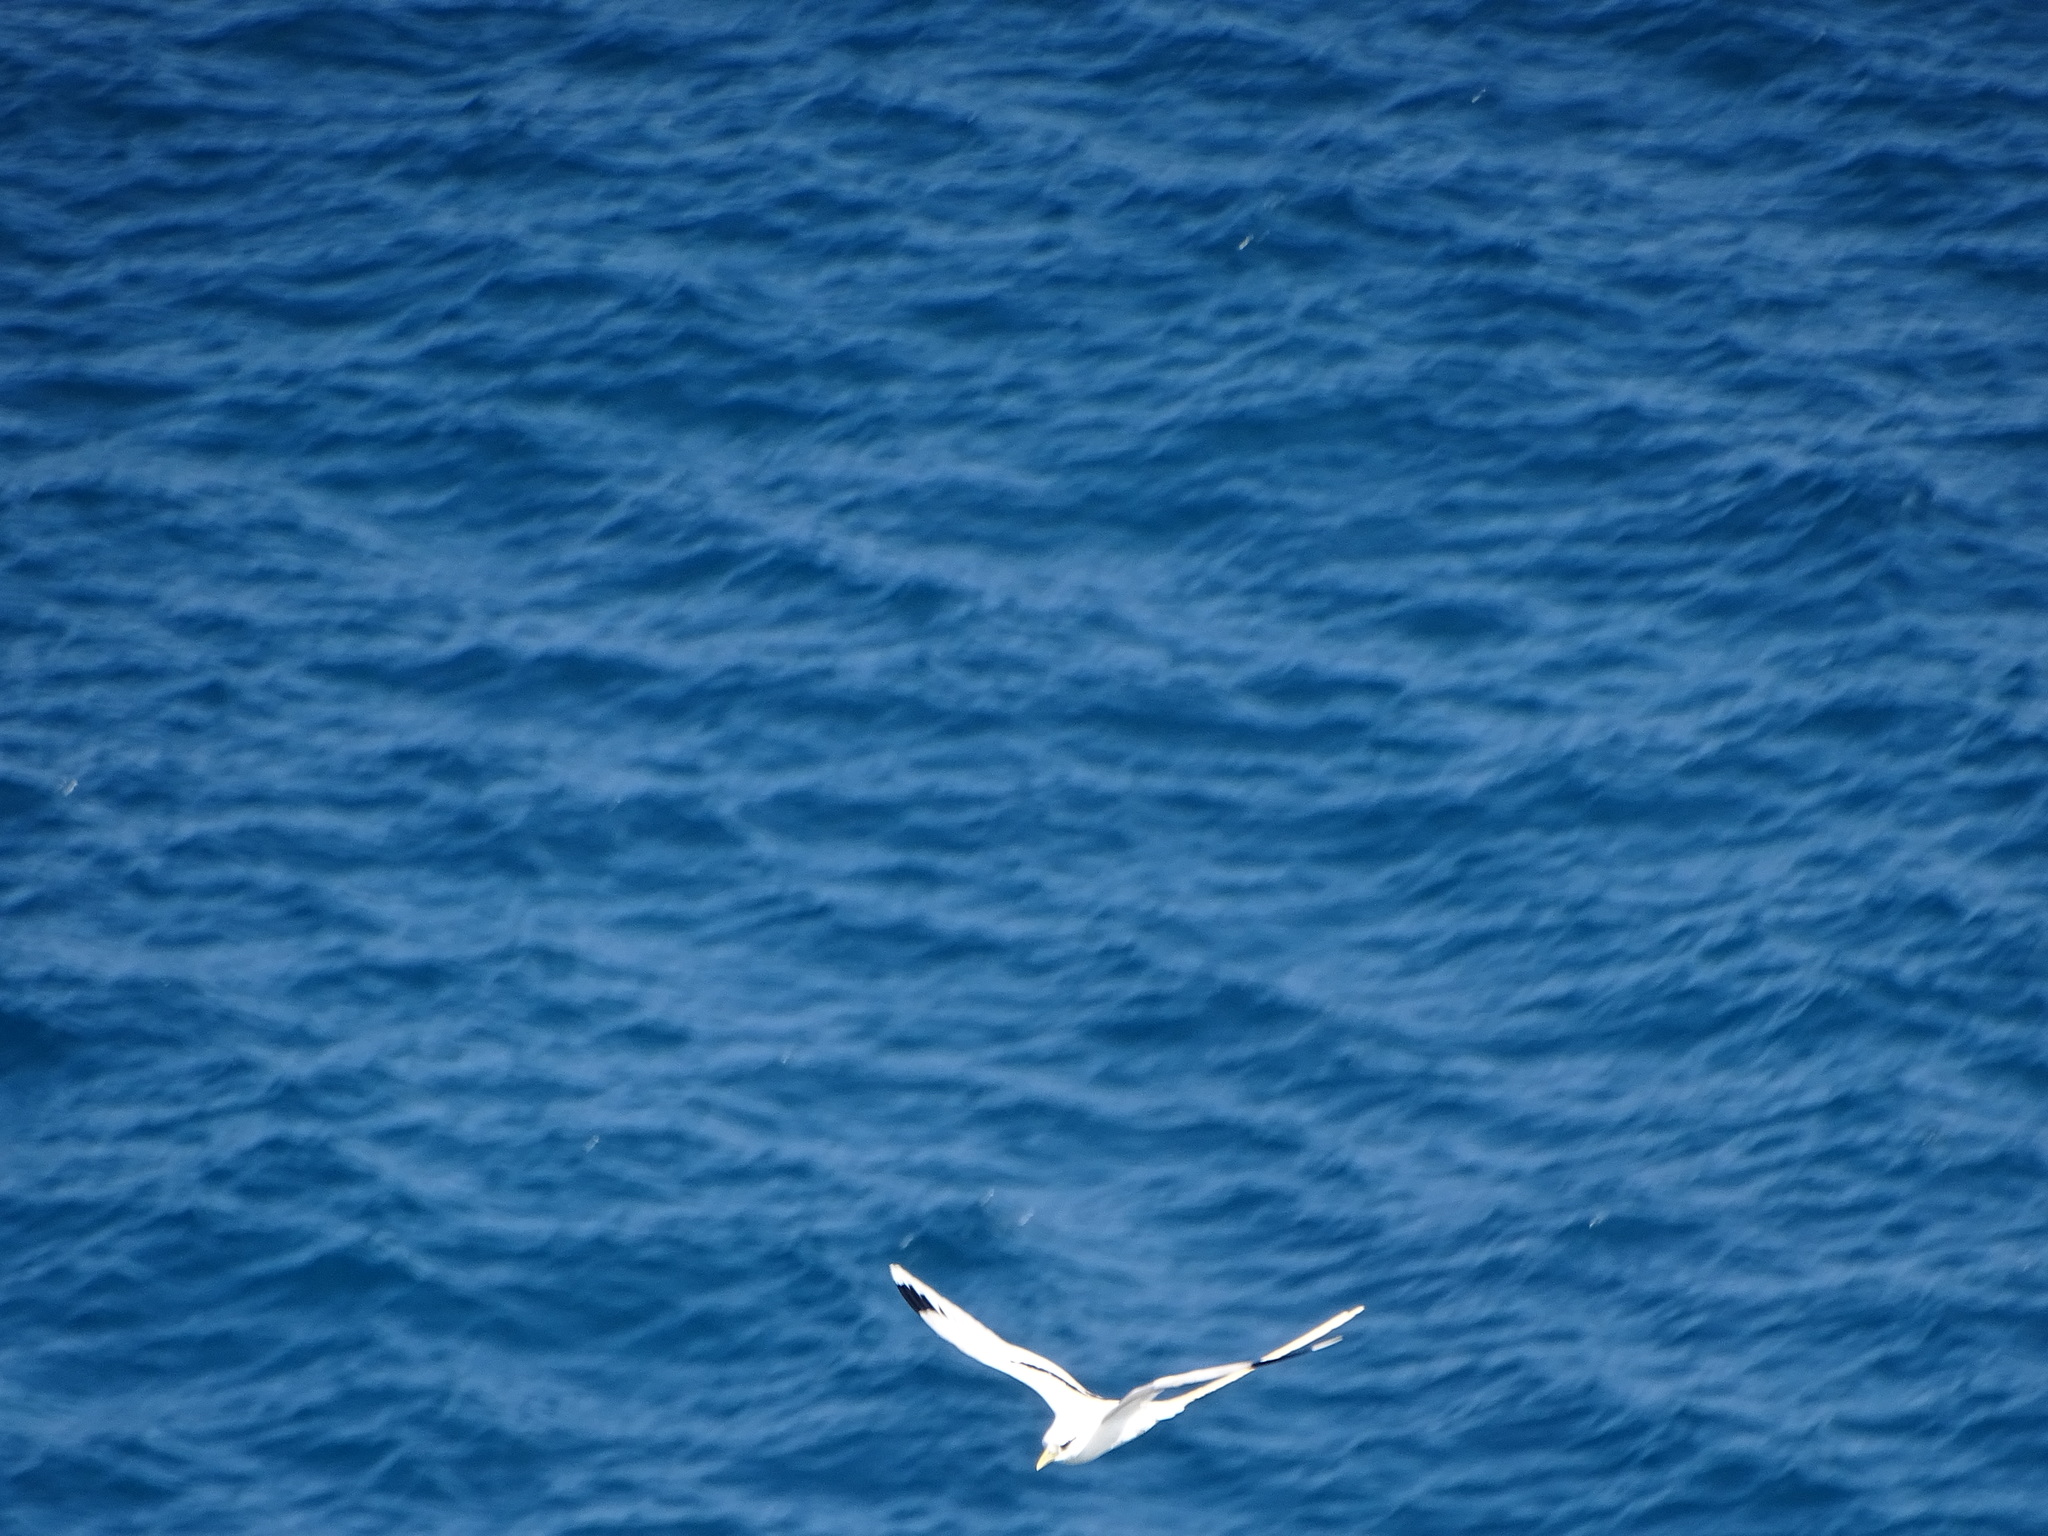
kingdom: Animalia
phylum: Chordata
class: Aves
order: Phaethontiformes
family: Phaethontidae
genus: Phaethon
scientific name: Phaethon lepturus
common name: White-tailed tropicbird
